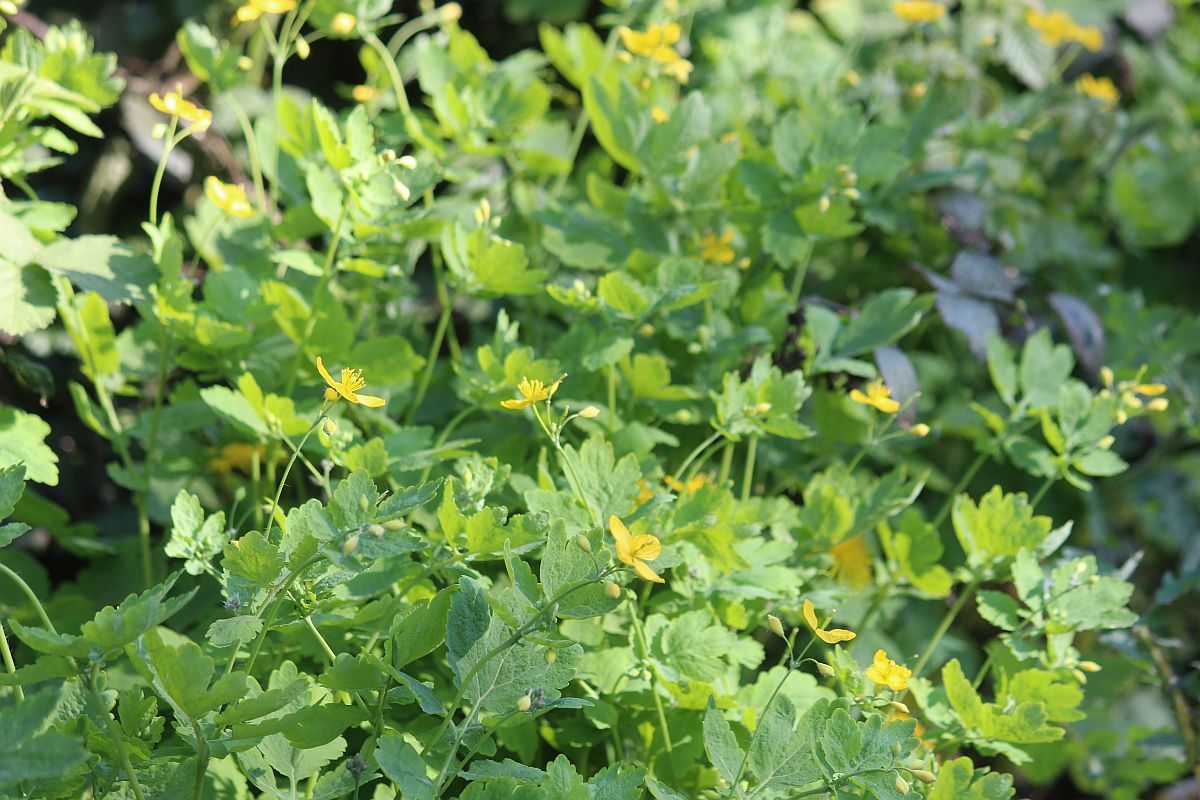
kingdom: Plantae
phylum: Tracheophyta
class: Magnoliopsida
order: Ranunculales
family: Papaveraceae
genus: Chelidonium
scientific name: Chelidonium majus
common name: Greater celandine
